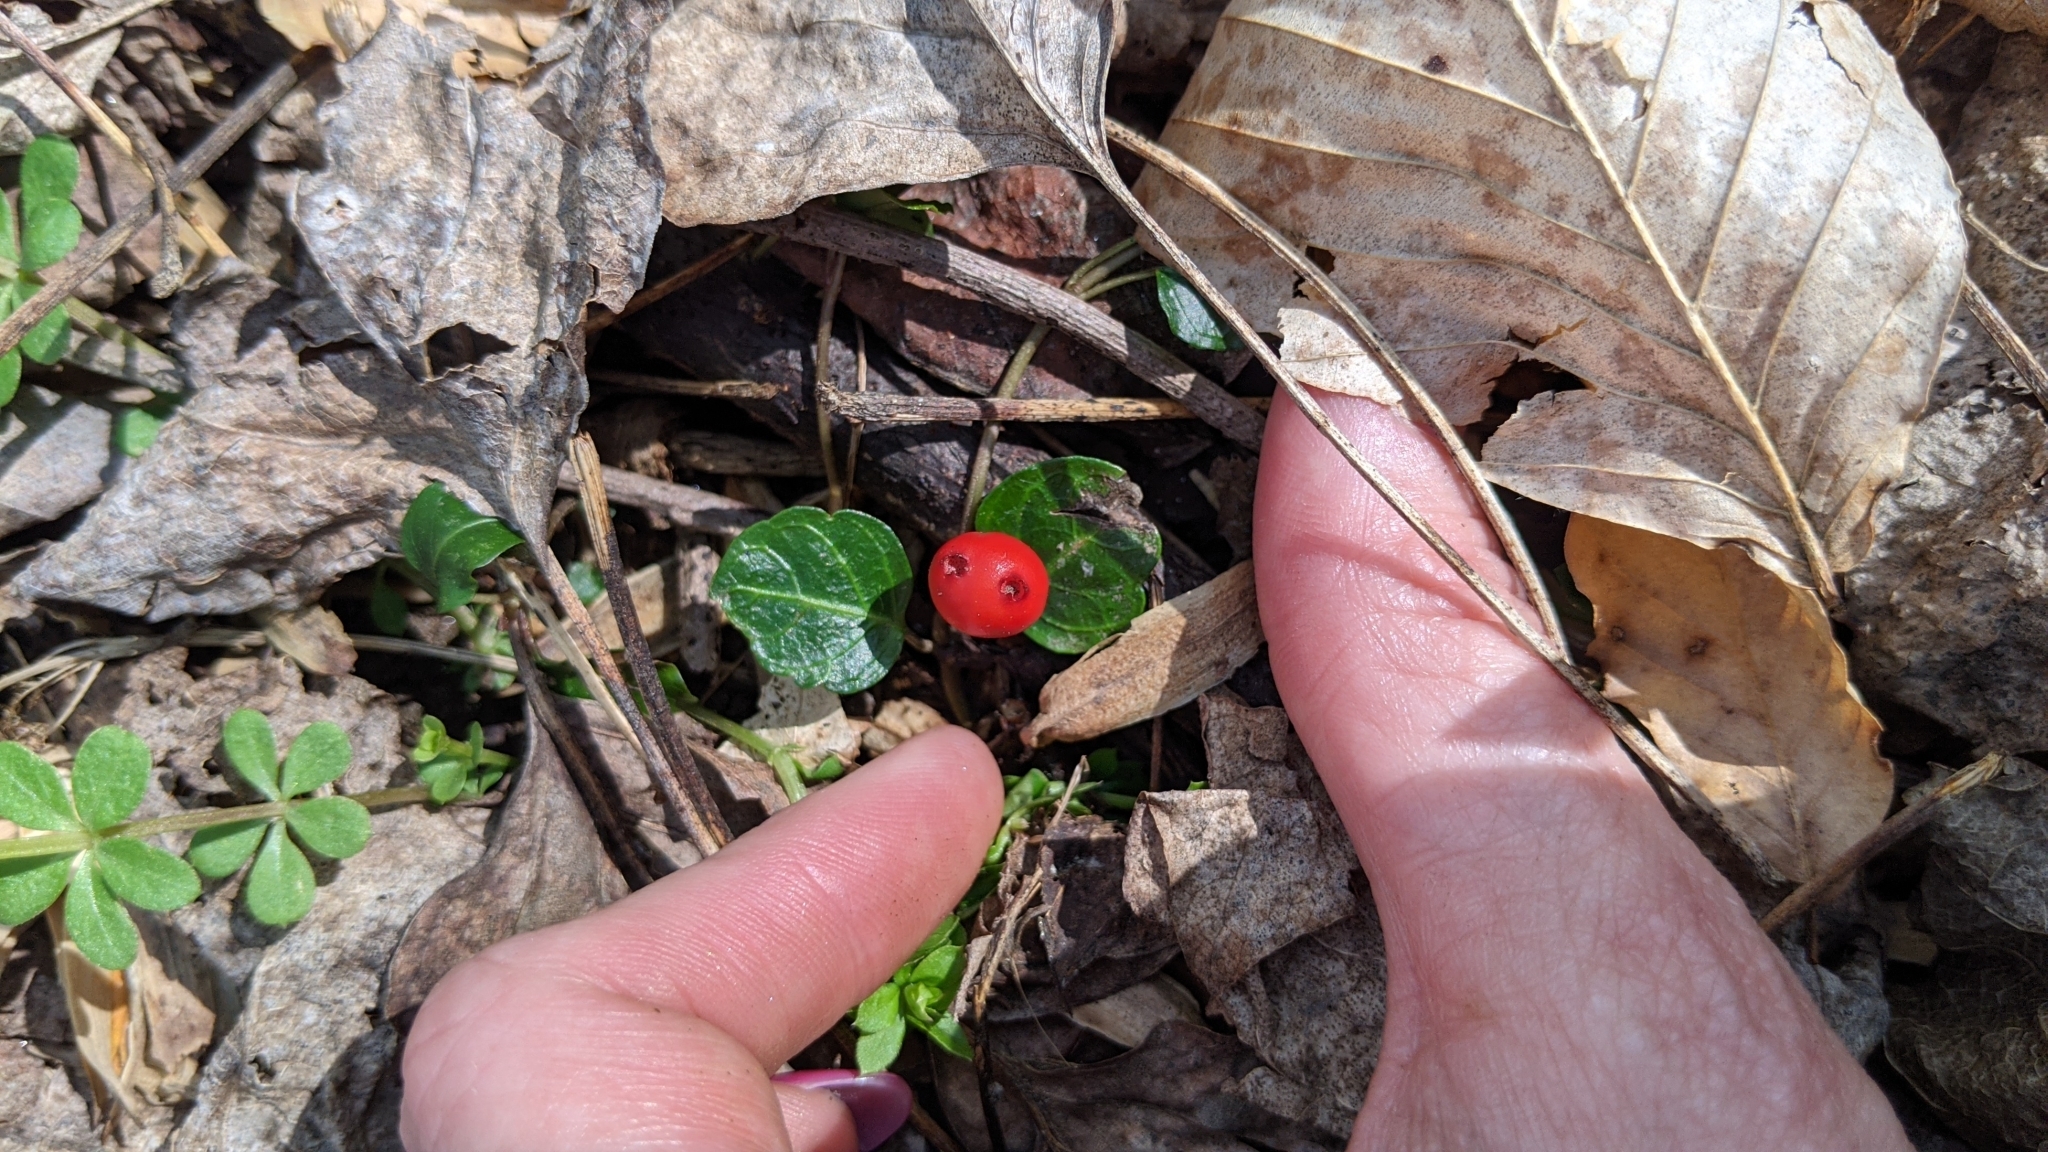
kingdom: Plantae
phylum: Tracheophyta
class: Magnoliopsida
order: Gentianales
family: Rubiaceae
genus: Mitchella
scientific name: Mitchella repens
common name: Partridge-berry
